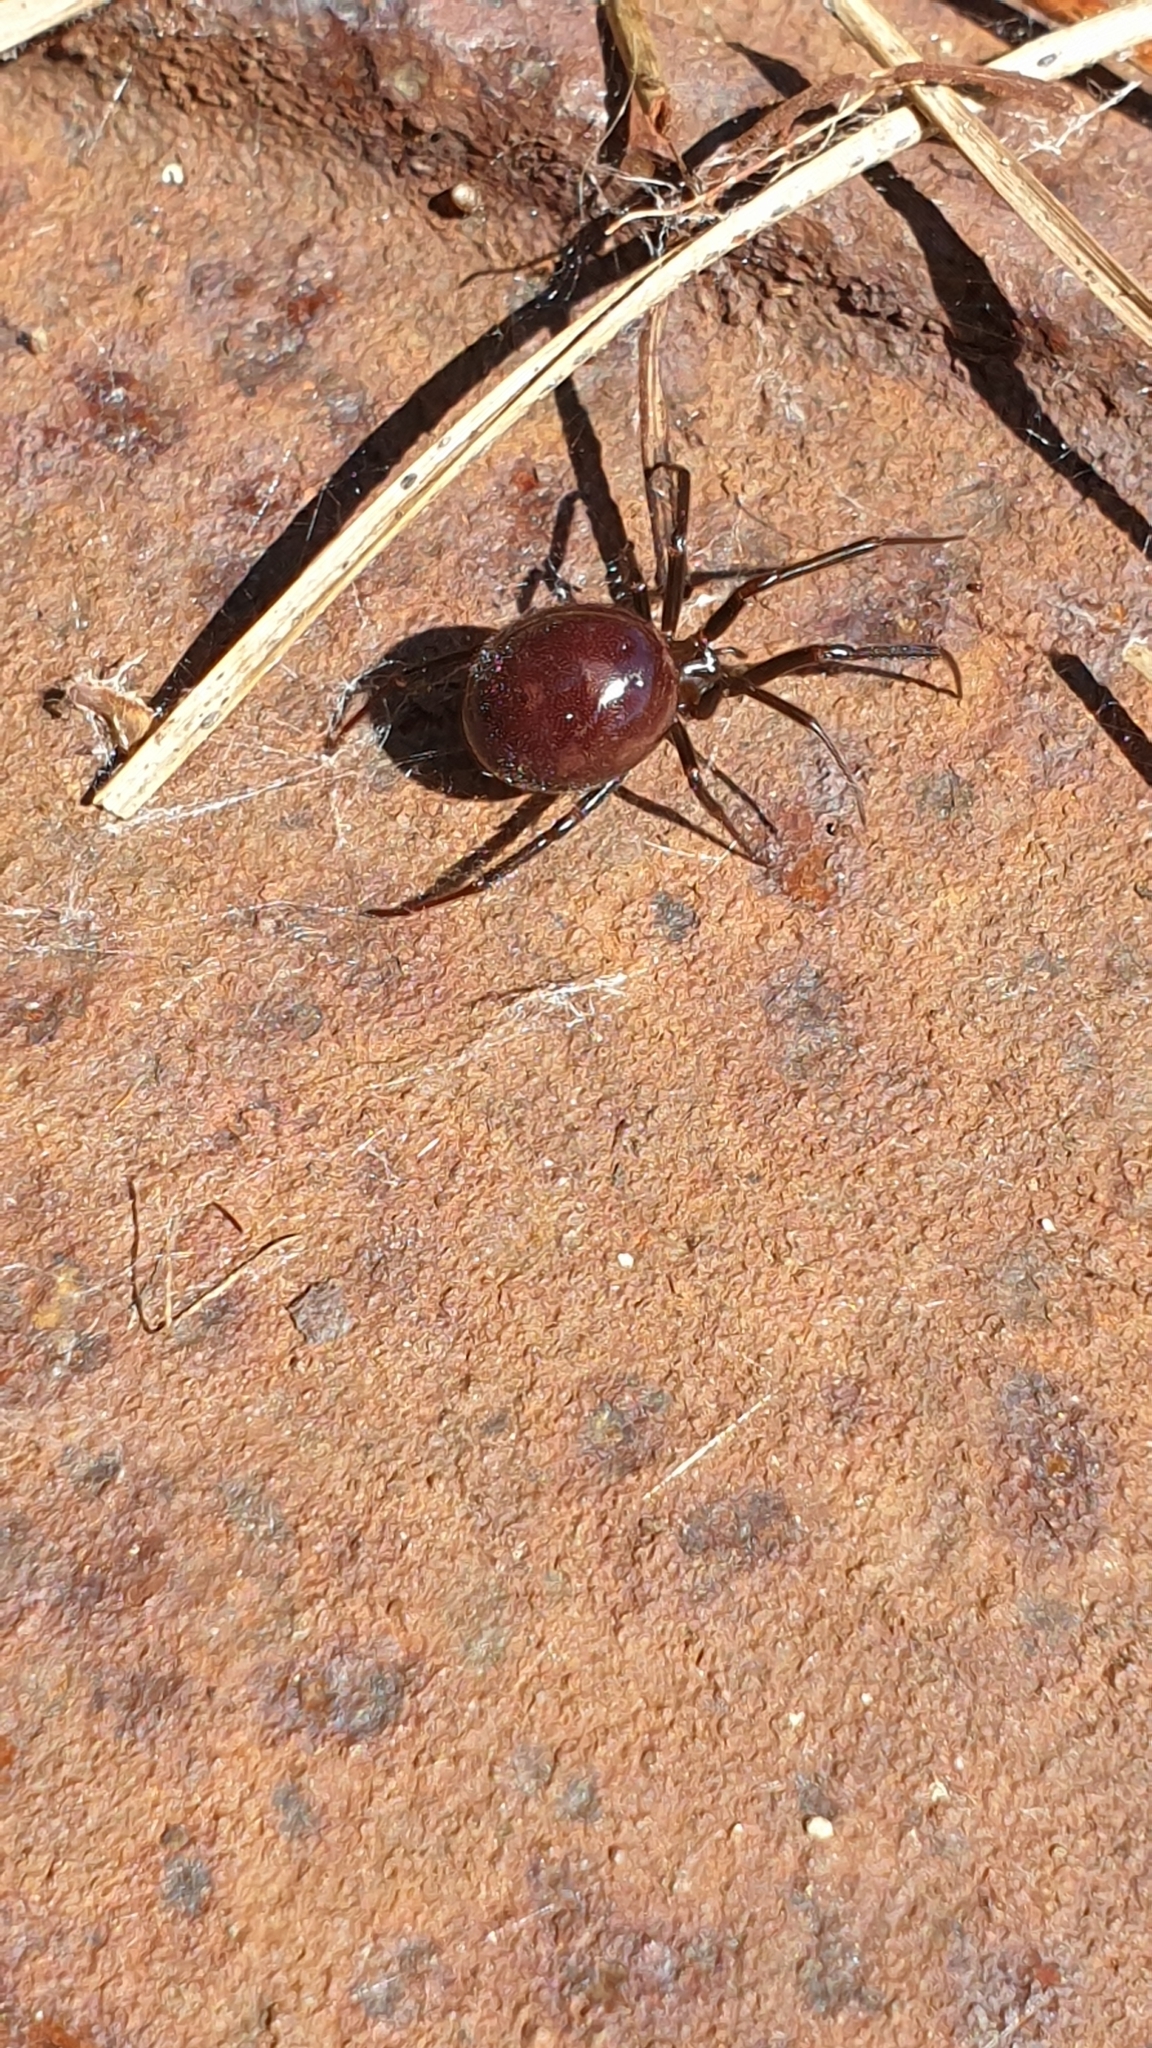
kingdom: Animalia
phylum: Arthropoda
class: Arachnida
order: Araneae
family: Theridiidae
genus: Steatoda
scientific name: Steatoda grossa
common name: False black widow
